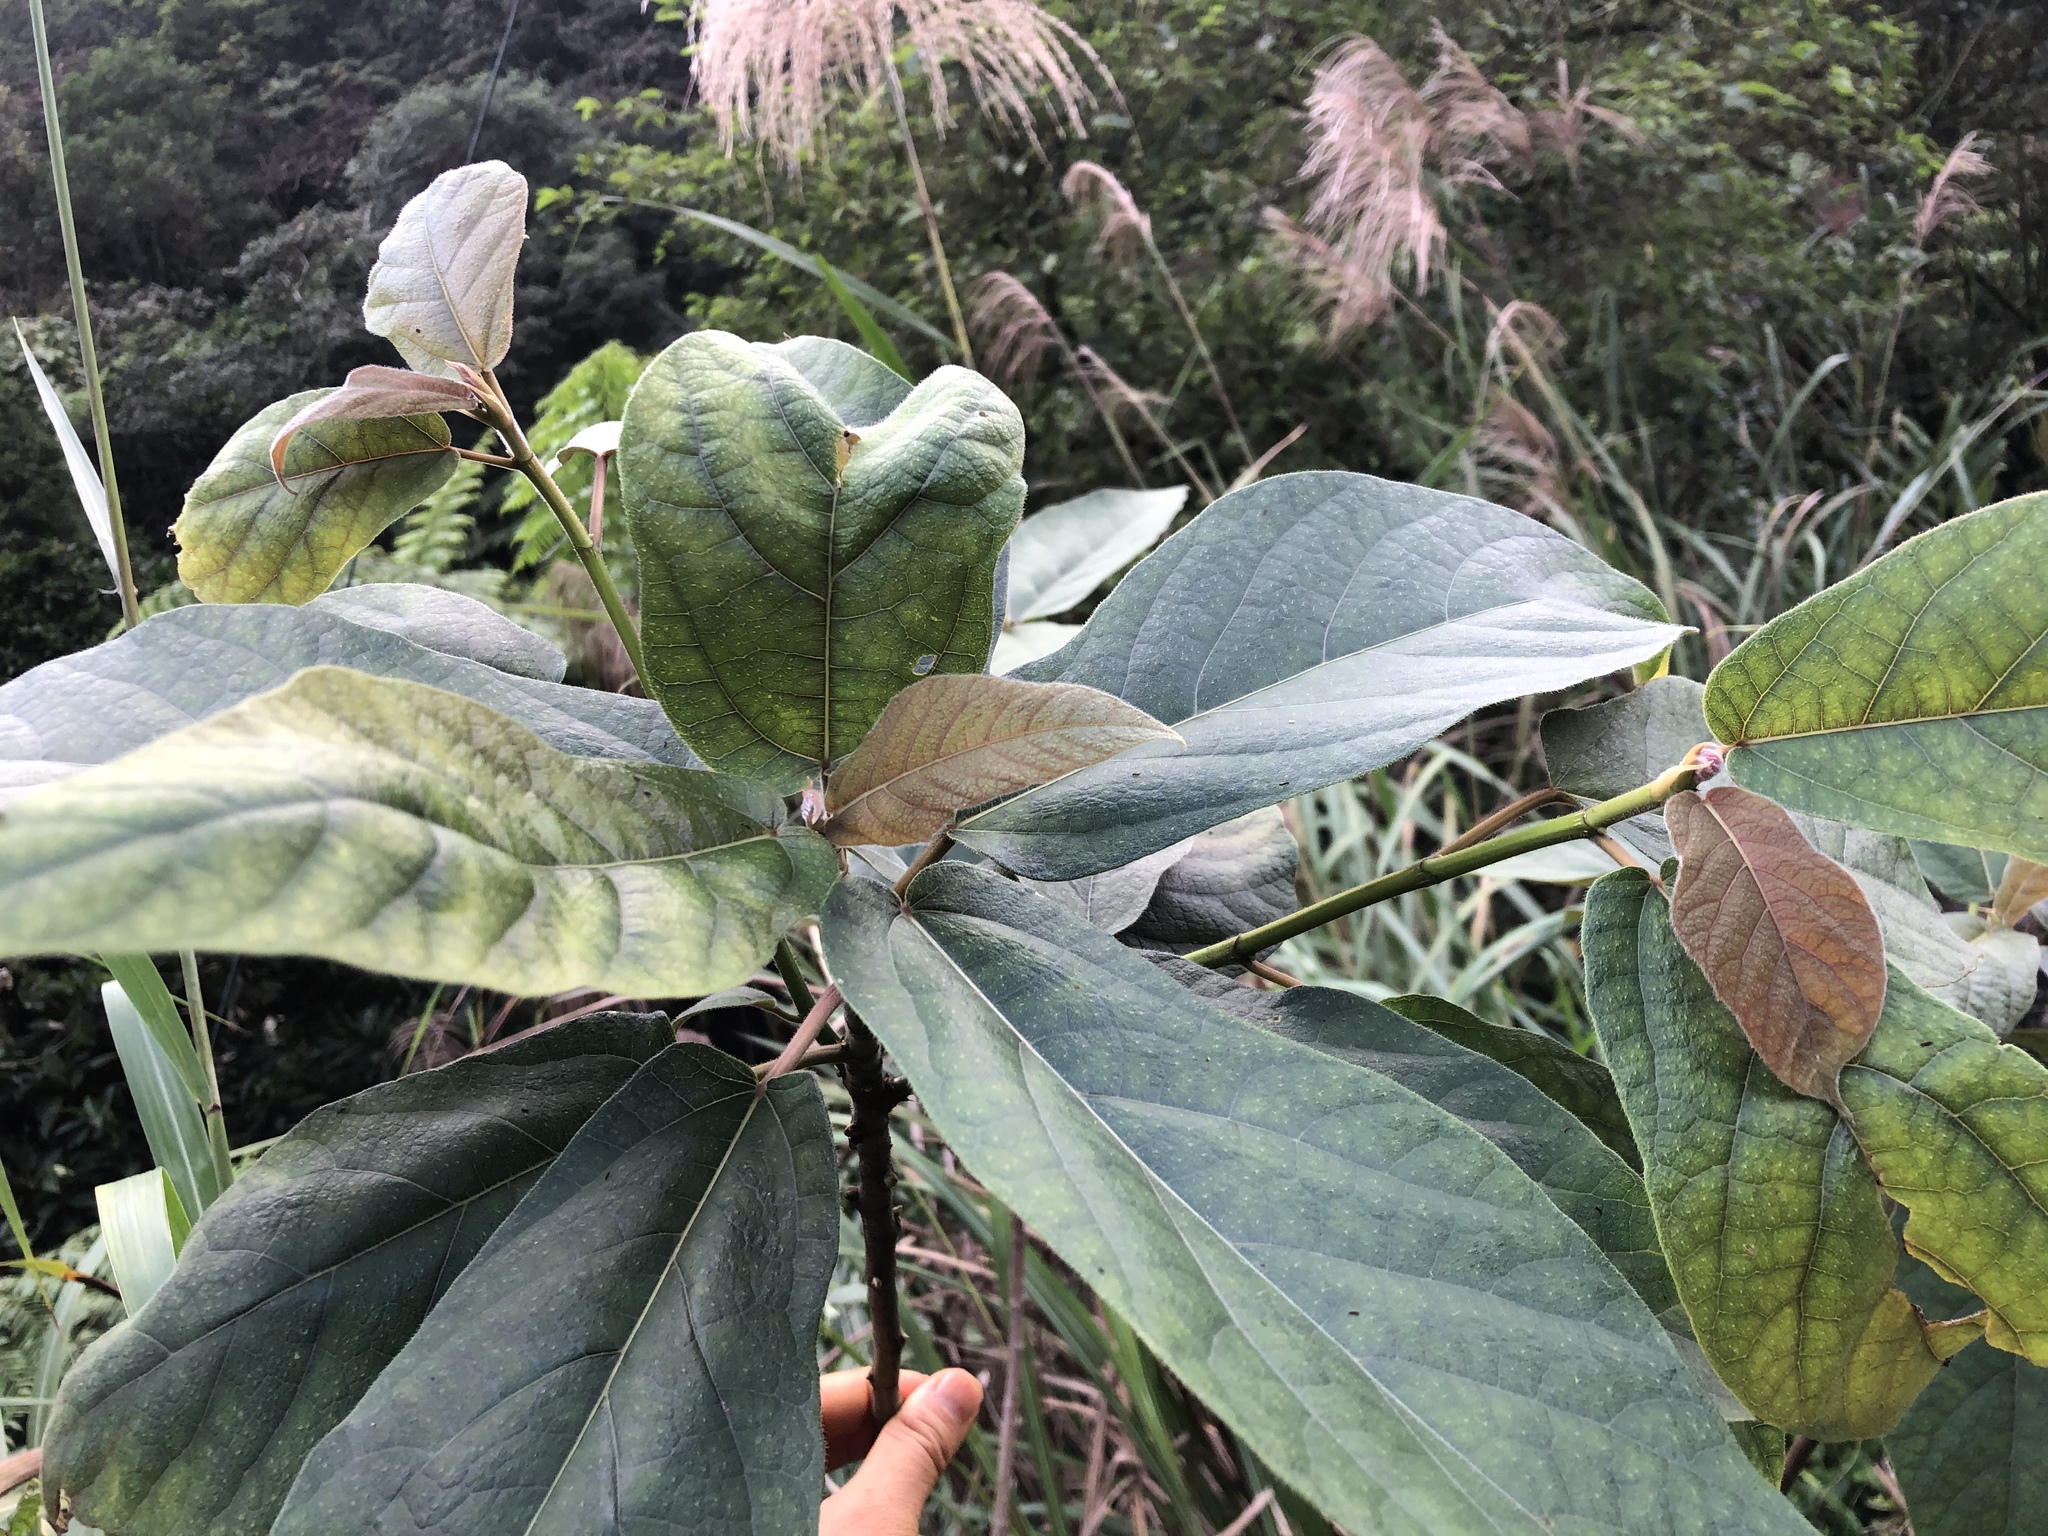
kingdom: Plantae
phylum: Tracheophyta
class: Magnoliopsida
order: Rosales
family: Moraceae
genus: Ficus
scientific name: Ficus erecta
